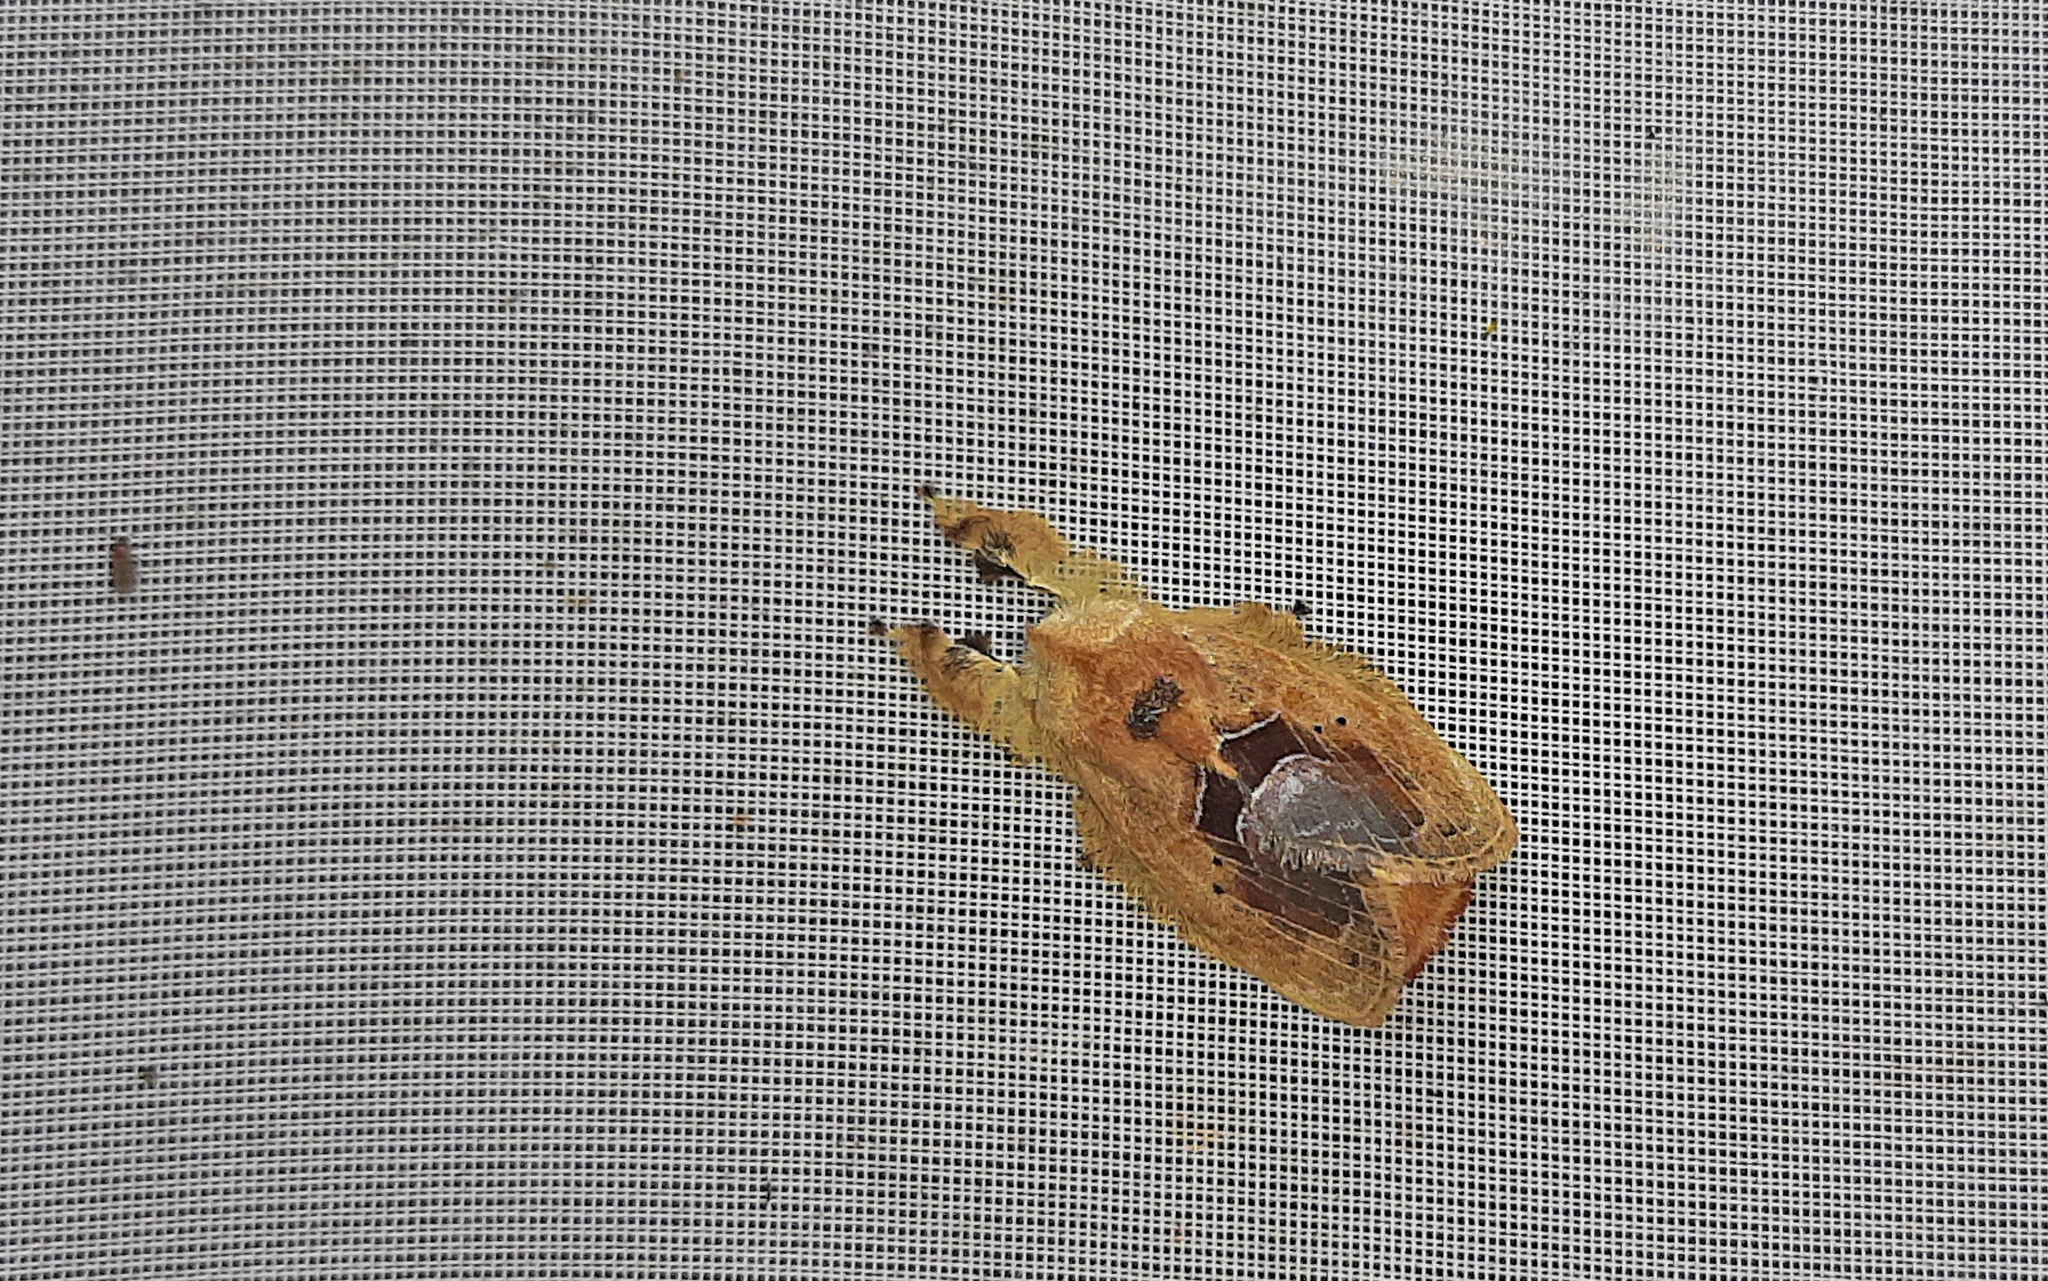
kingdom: Animalia
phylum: Arthropoda
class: Insecta
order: Lepidoptera
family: Lasiocampidae
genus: Euglyphis
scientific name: Euglyphis amisena
